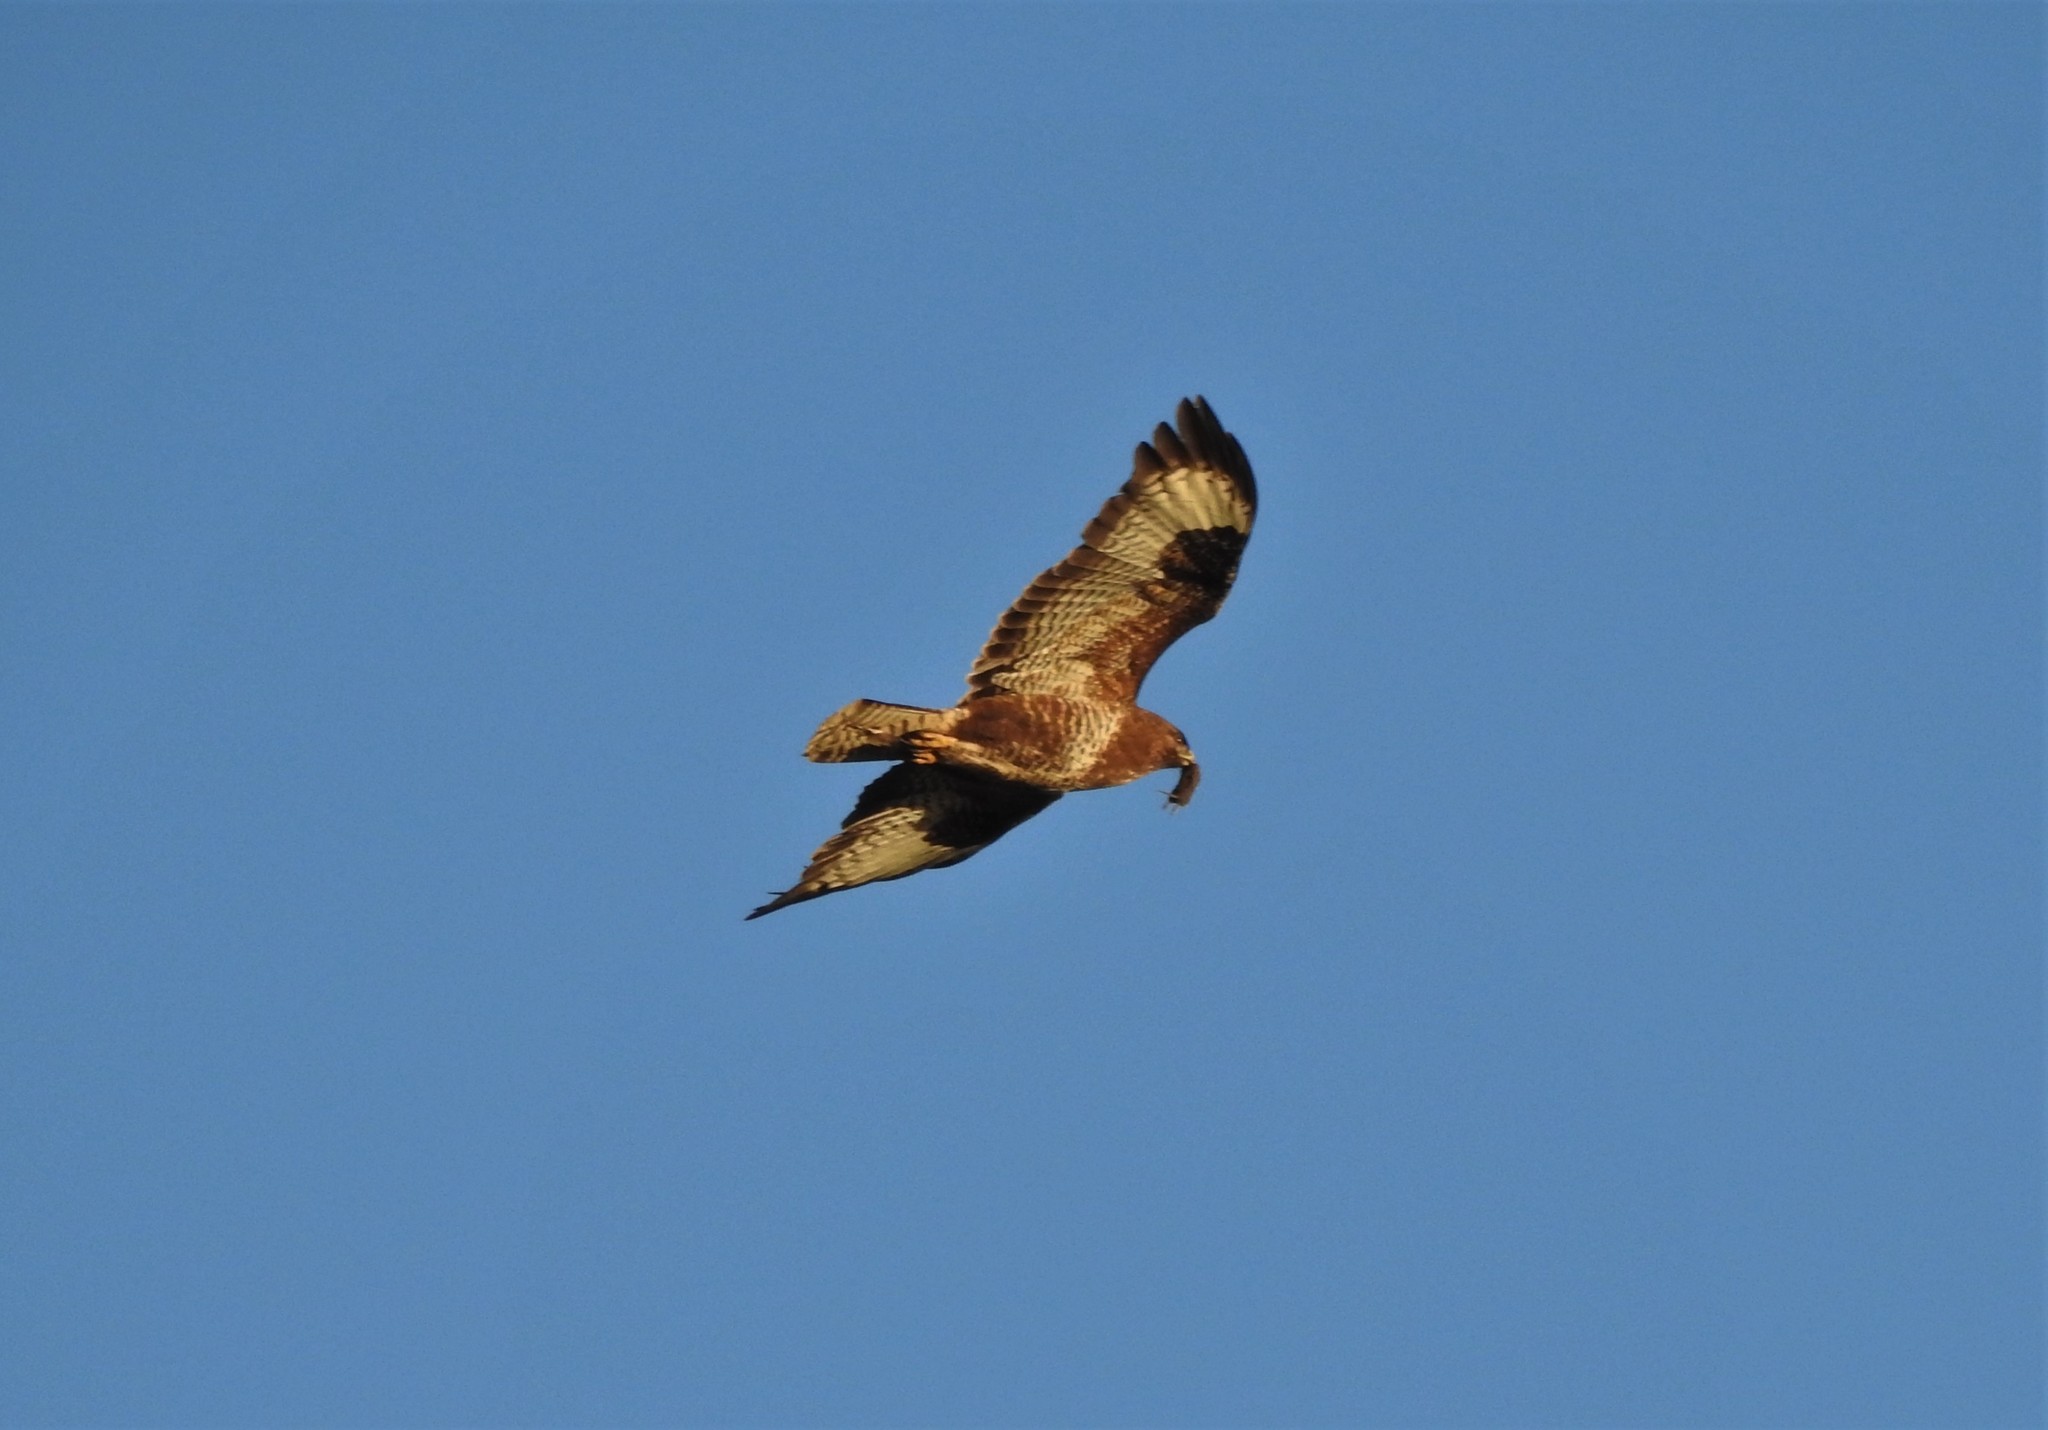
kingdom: Animalia
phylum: Chordata
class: Aves
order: Accipitriformes
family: Accipitridae
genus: Buteo
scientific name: Buteo buteo
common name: Common buzzard
